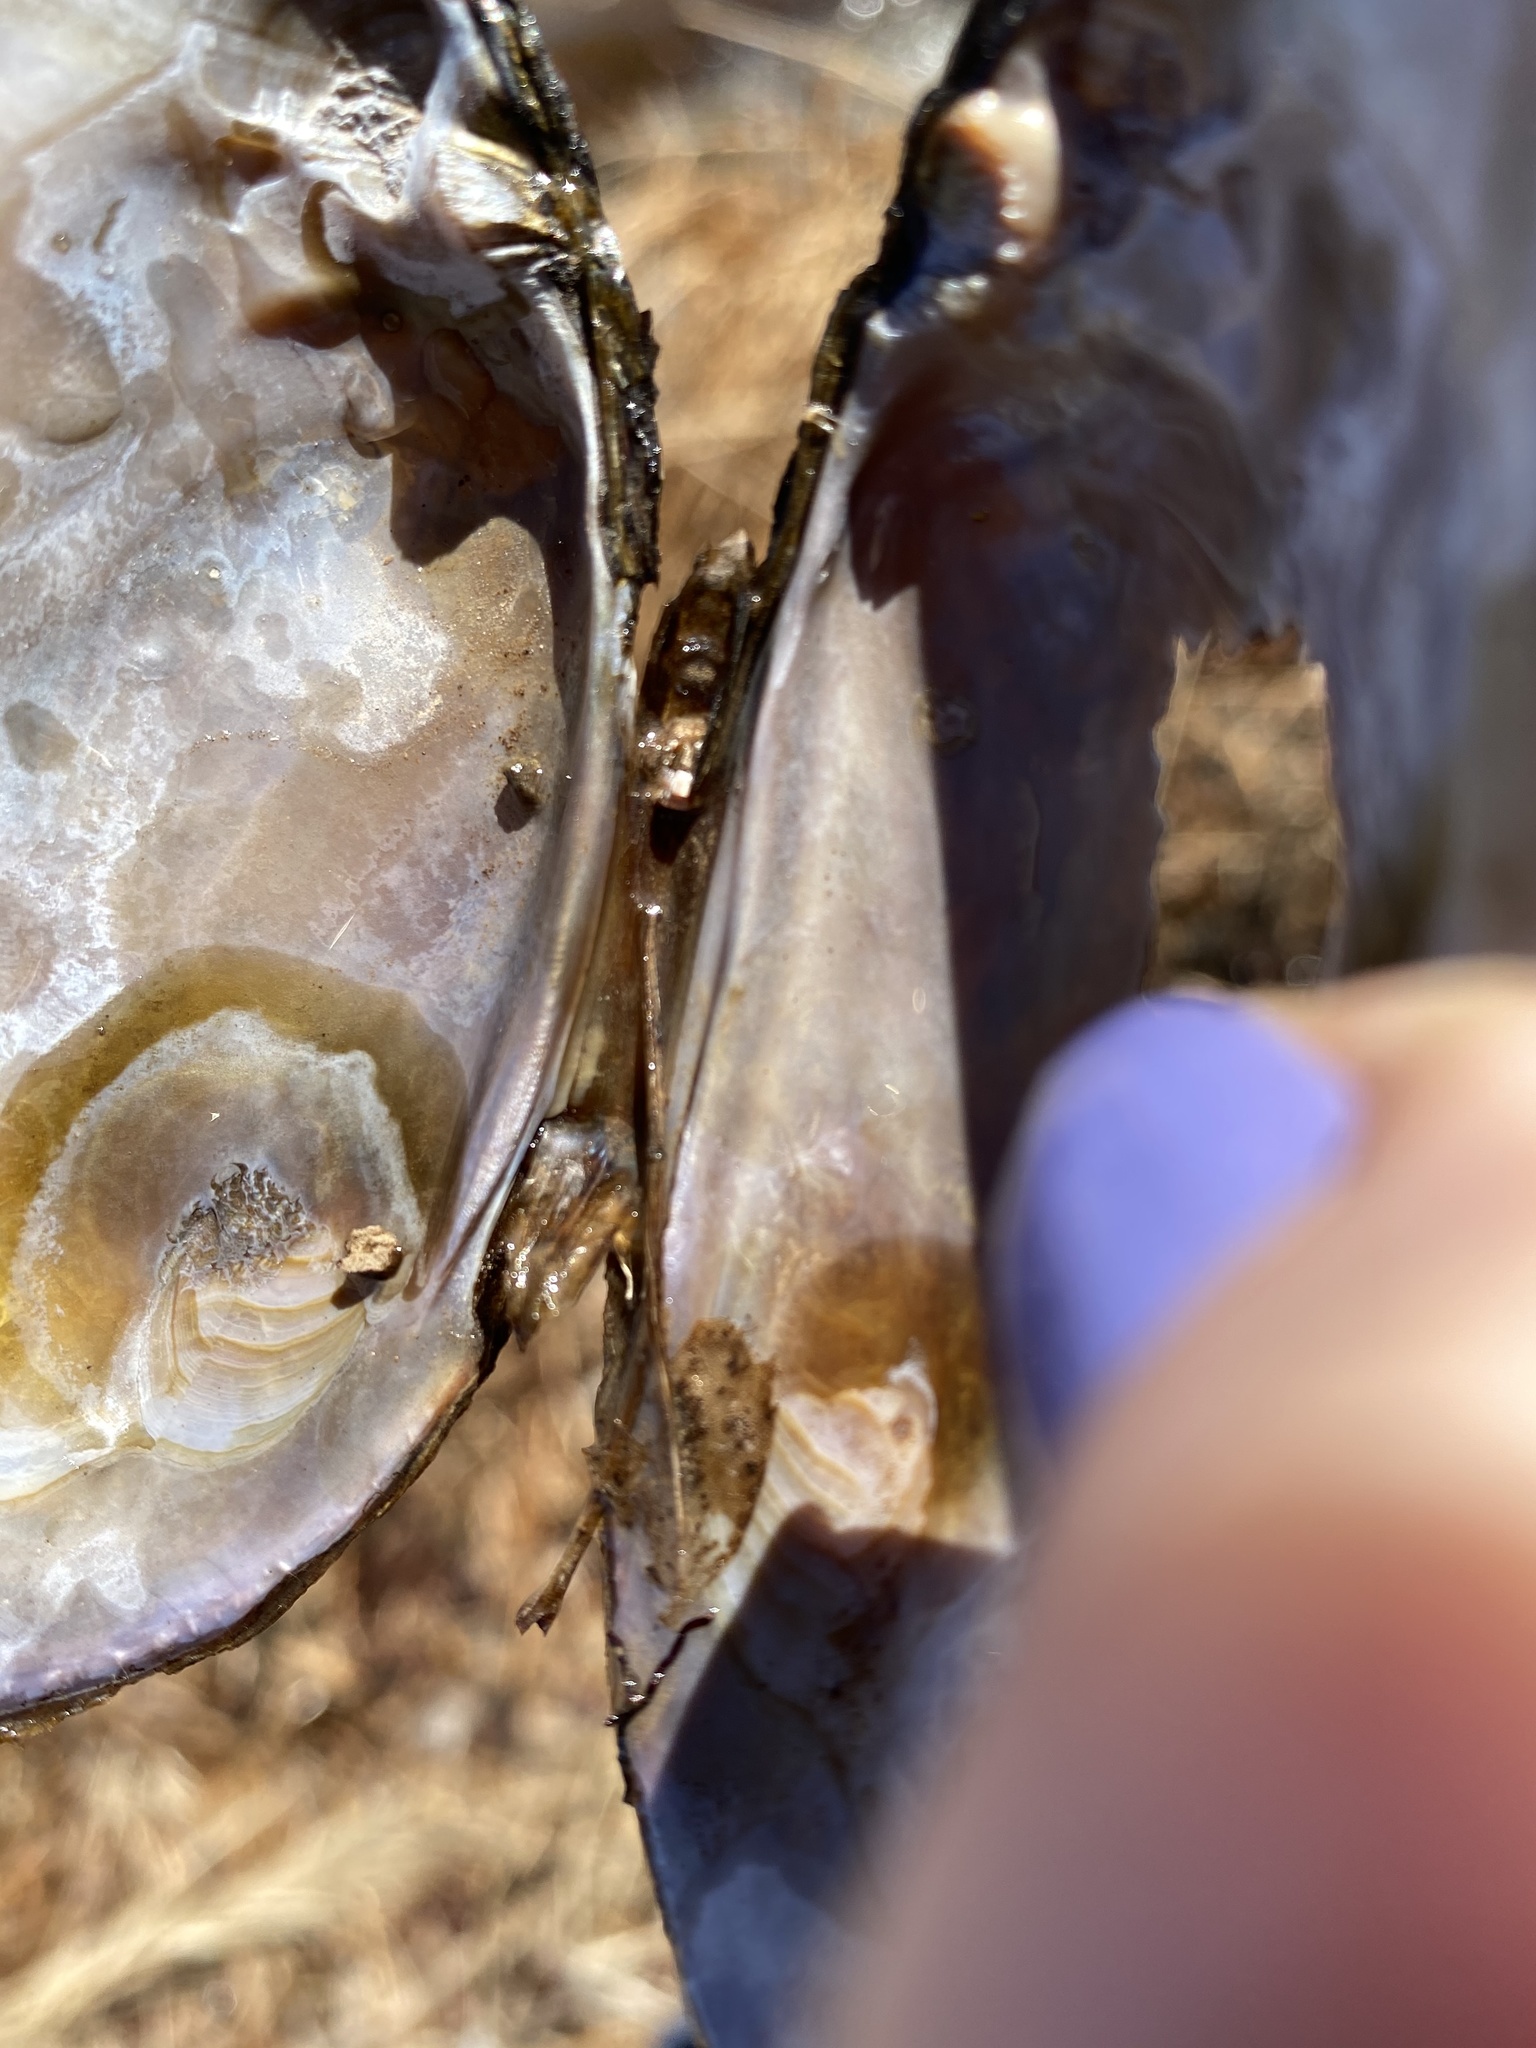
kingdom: Animalia
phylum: Mollusca
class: Bivalvia
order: Unionida
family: Unionidae
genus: Elliptio
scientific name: Elliptio complanata
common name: Eastern elliptio
